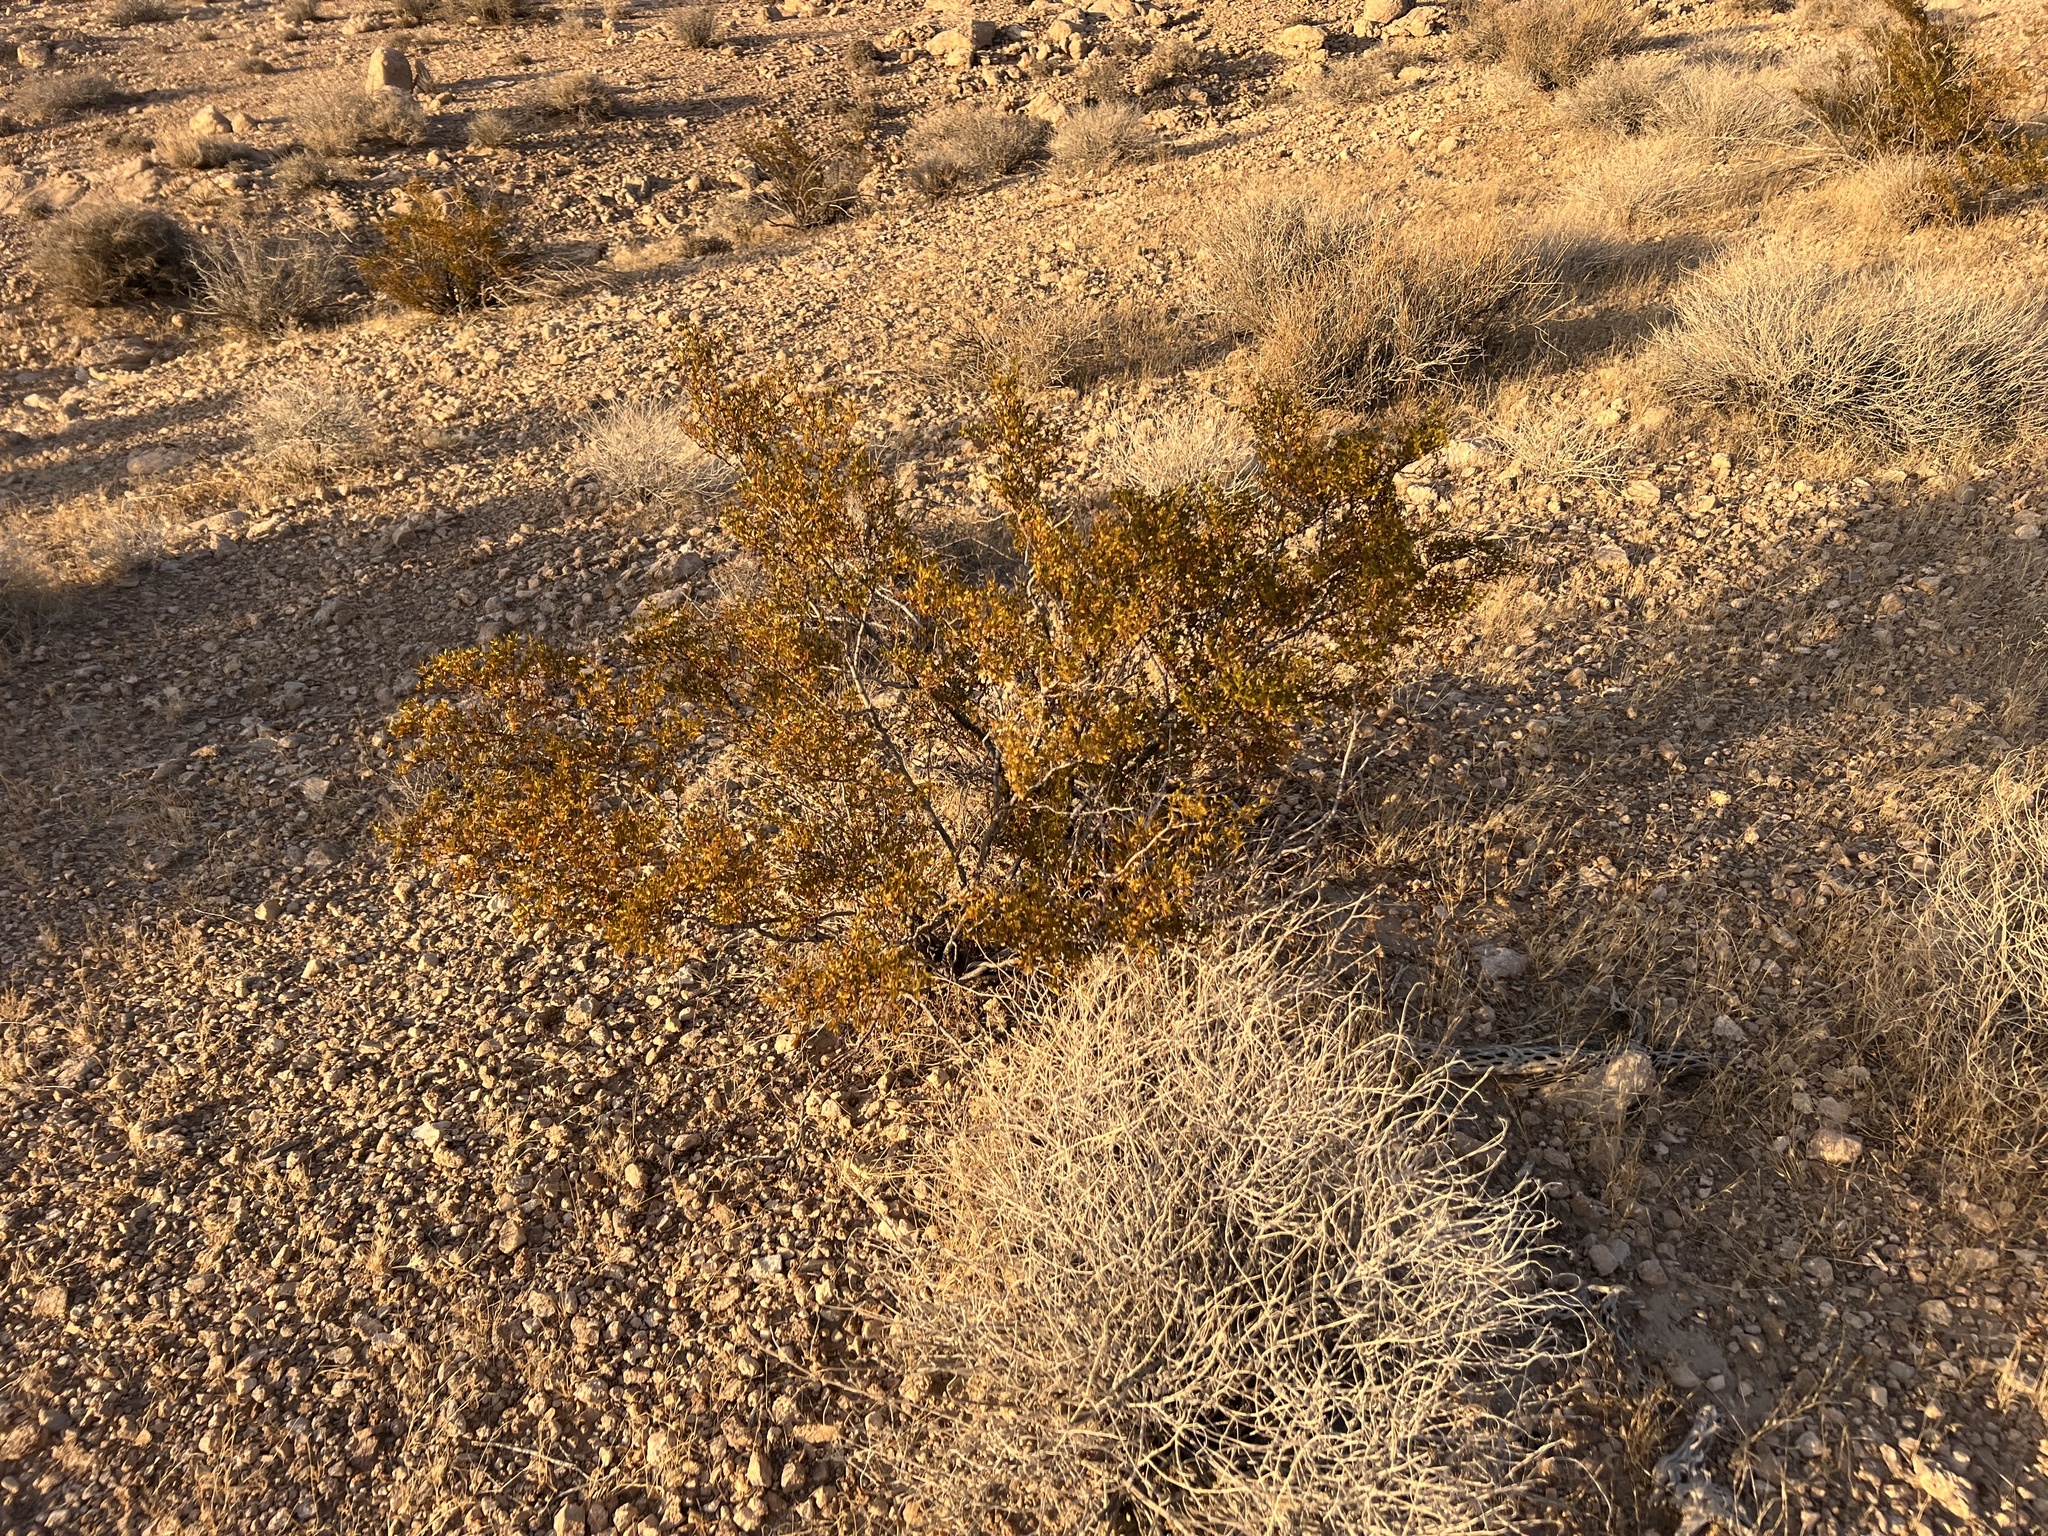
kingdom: Plantae
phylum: Tracheophyta
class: Magnoliopsida
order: Zygophyllales
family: Zygophyllaceae
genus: Larrea
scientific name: Larrea tridentata
